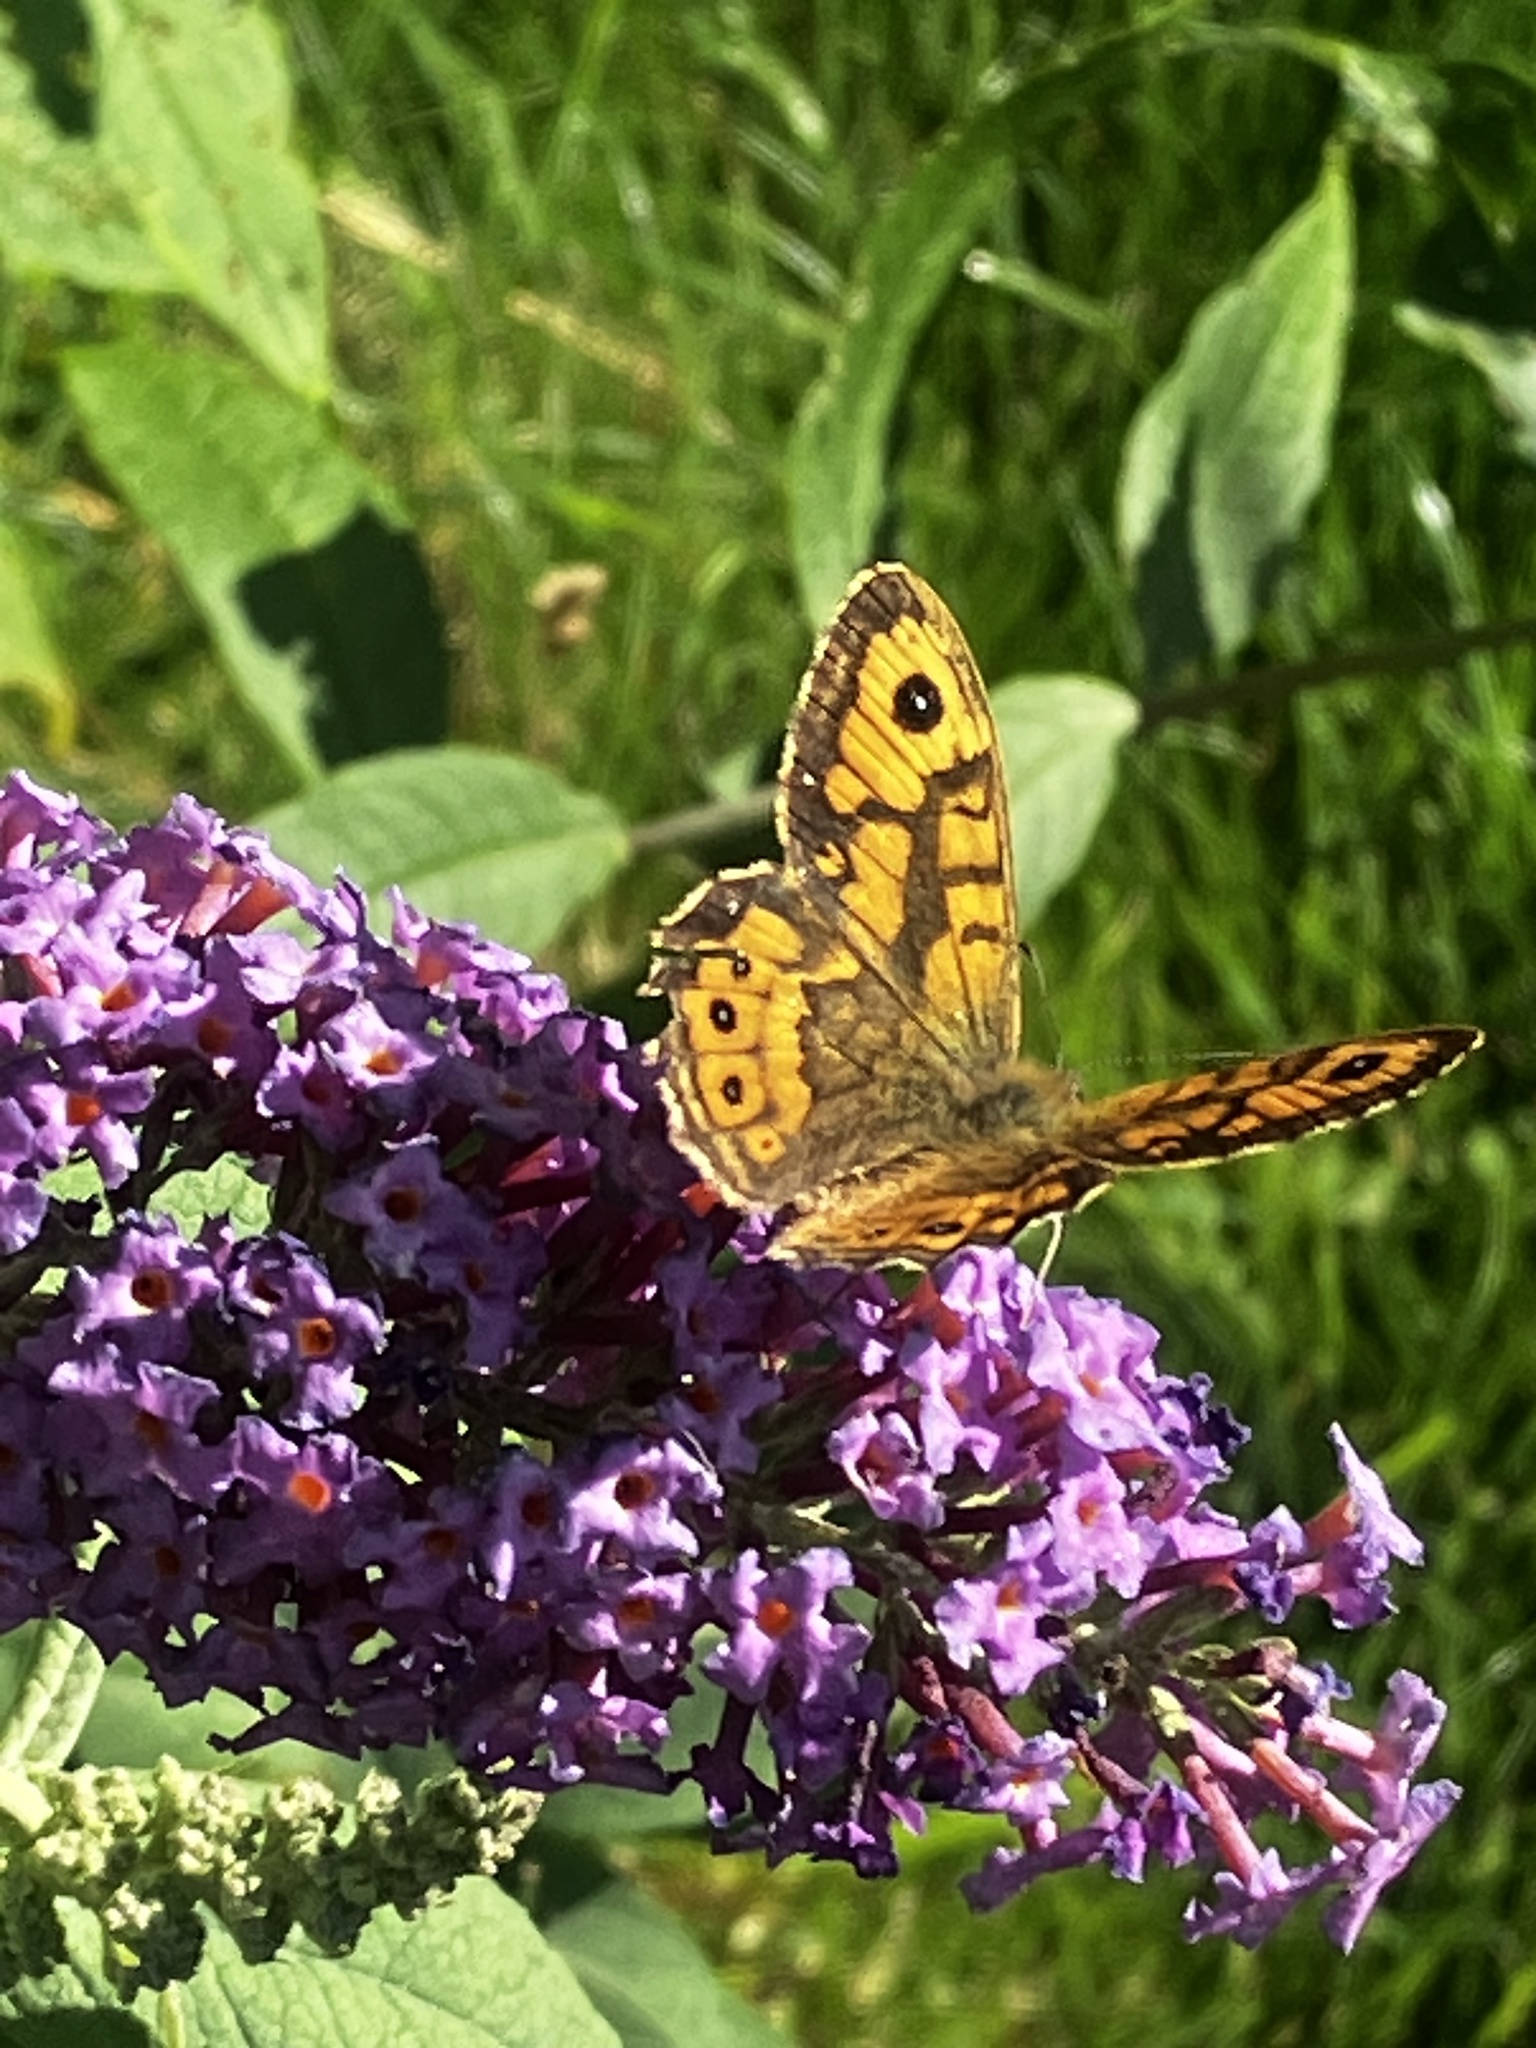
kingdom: Animalia
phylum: Arthropoda
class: Insecta
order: Lepidoptera
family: Nymphalidae
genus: Pararge
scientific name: Pararge Lasiommata megera
